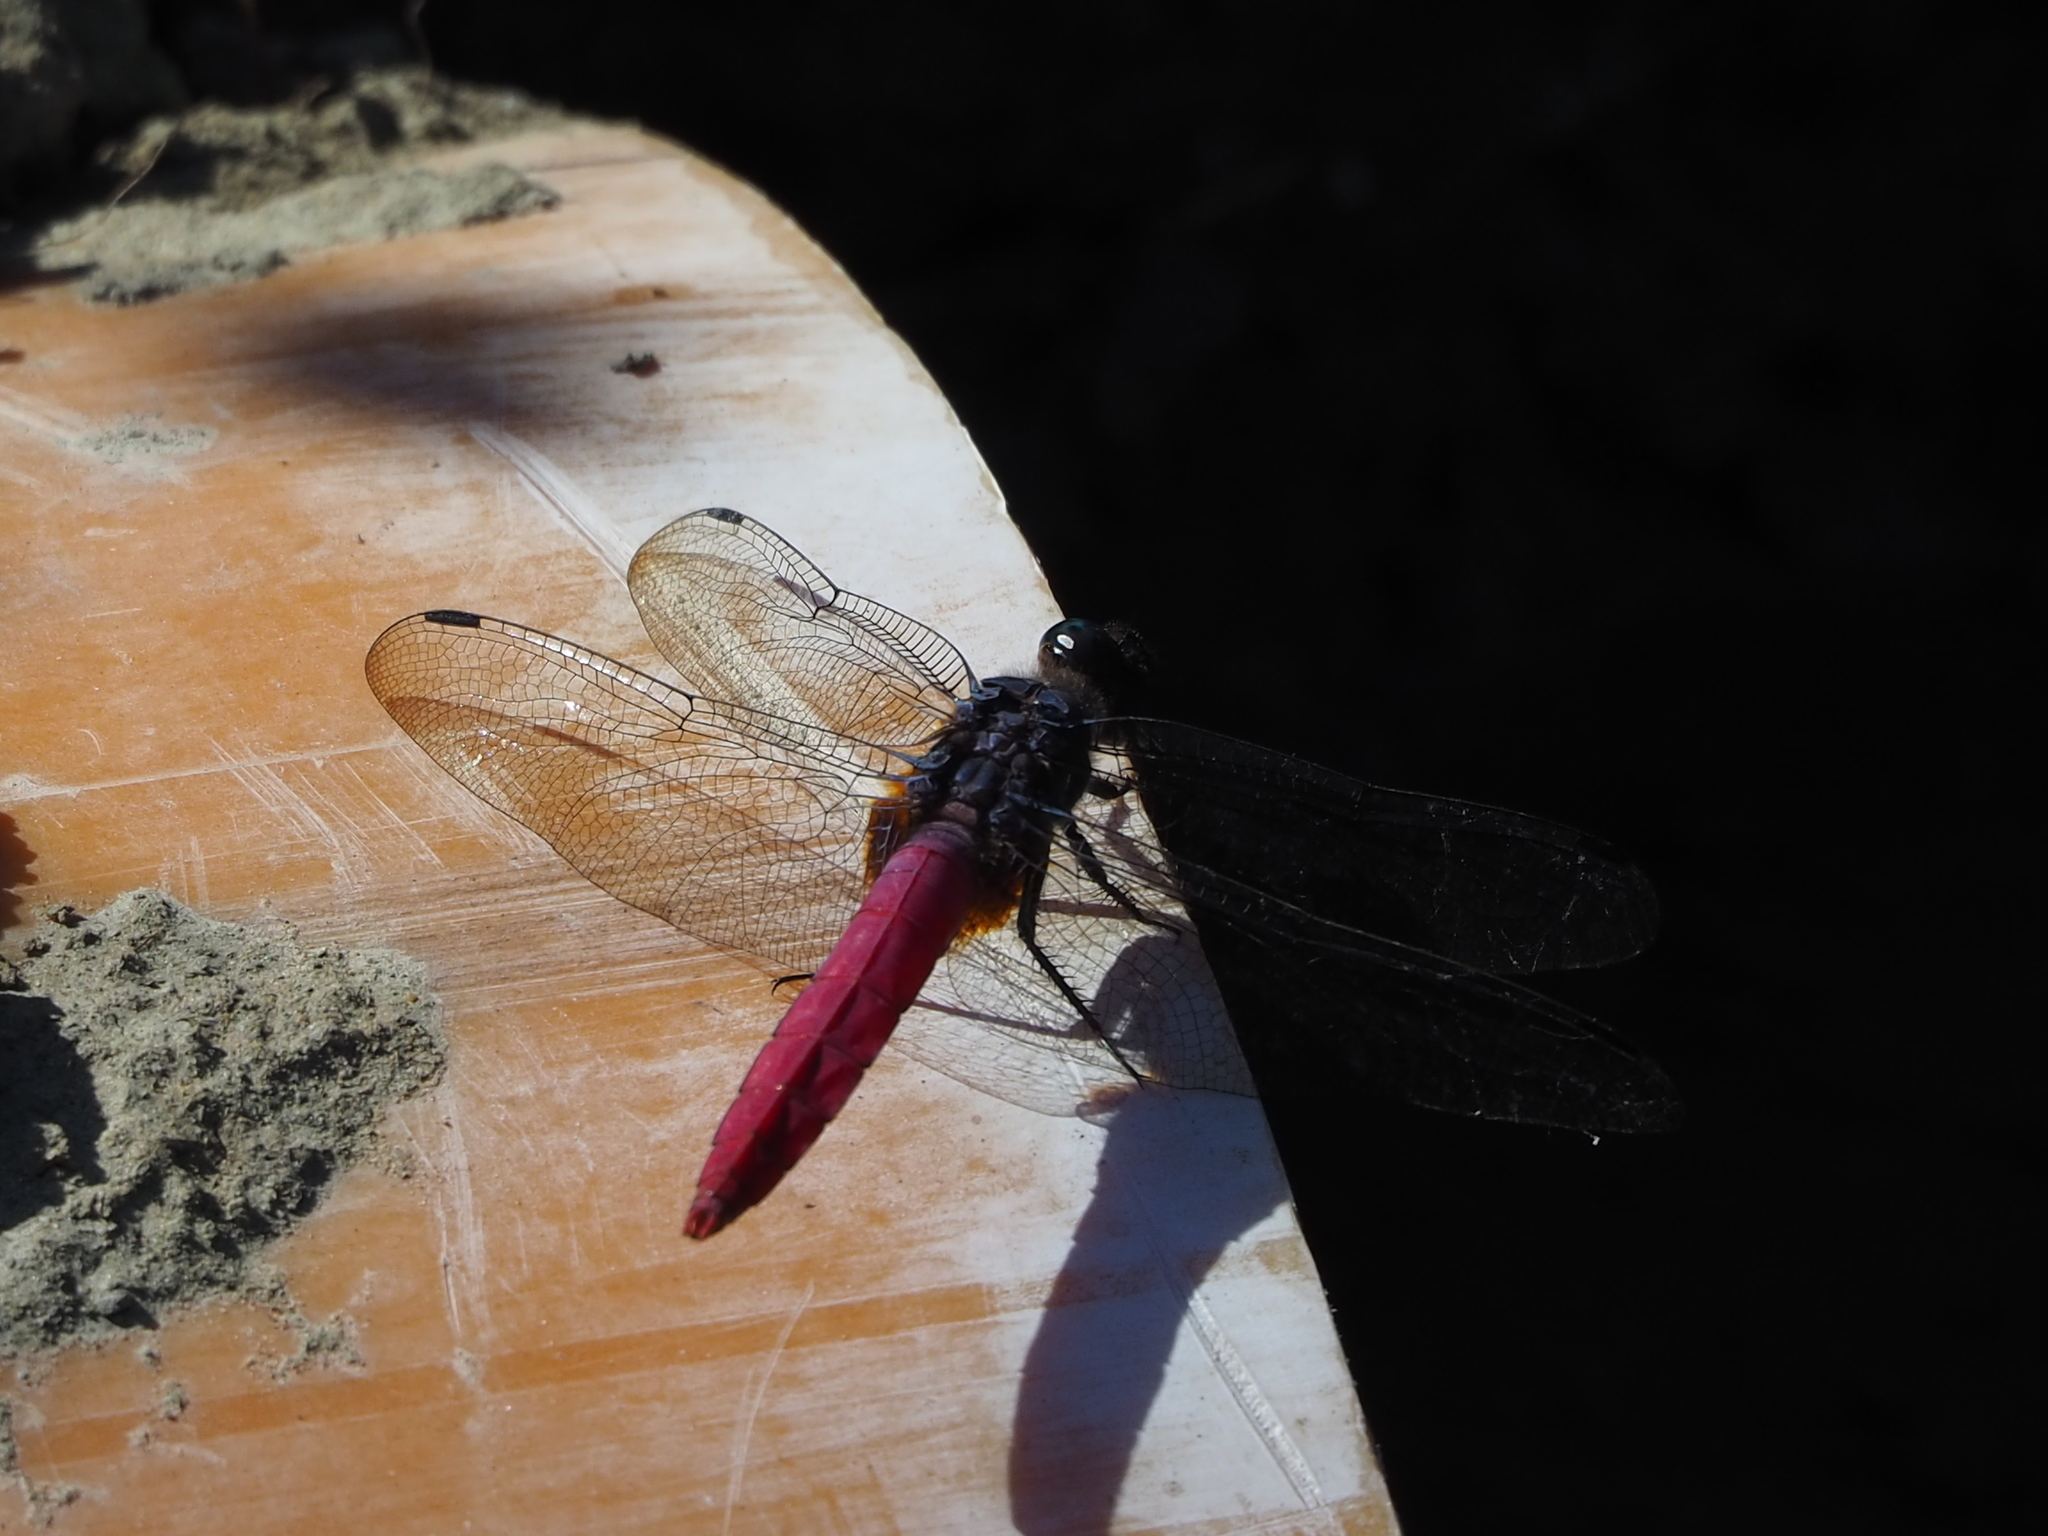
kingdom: Animalia
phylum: Arthropoda
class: Insecta
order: Odonata
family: Libellulidae
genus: Orthetrum
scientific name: Orthetrum pruinosum
